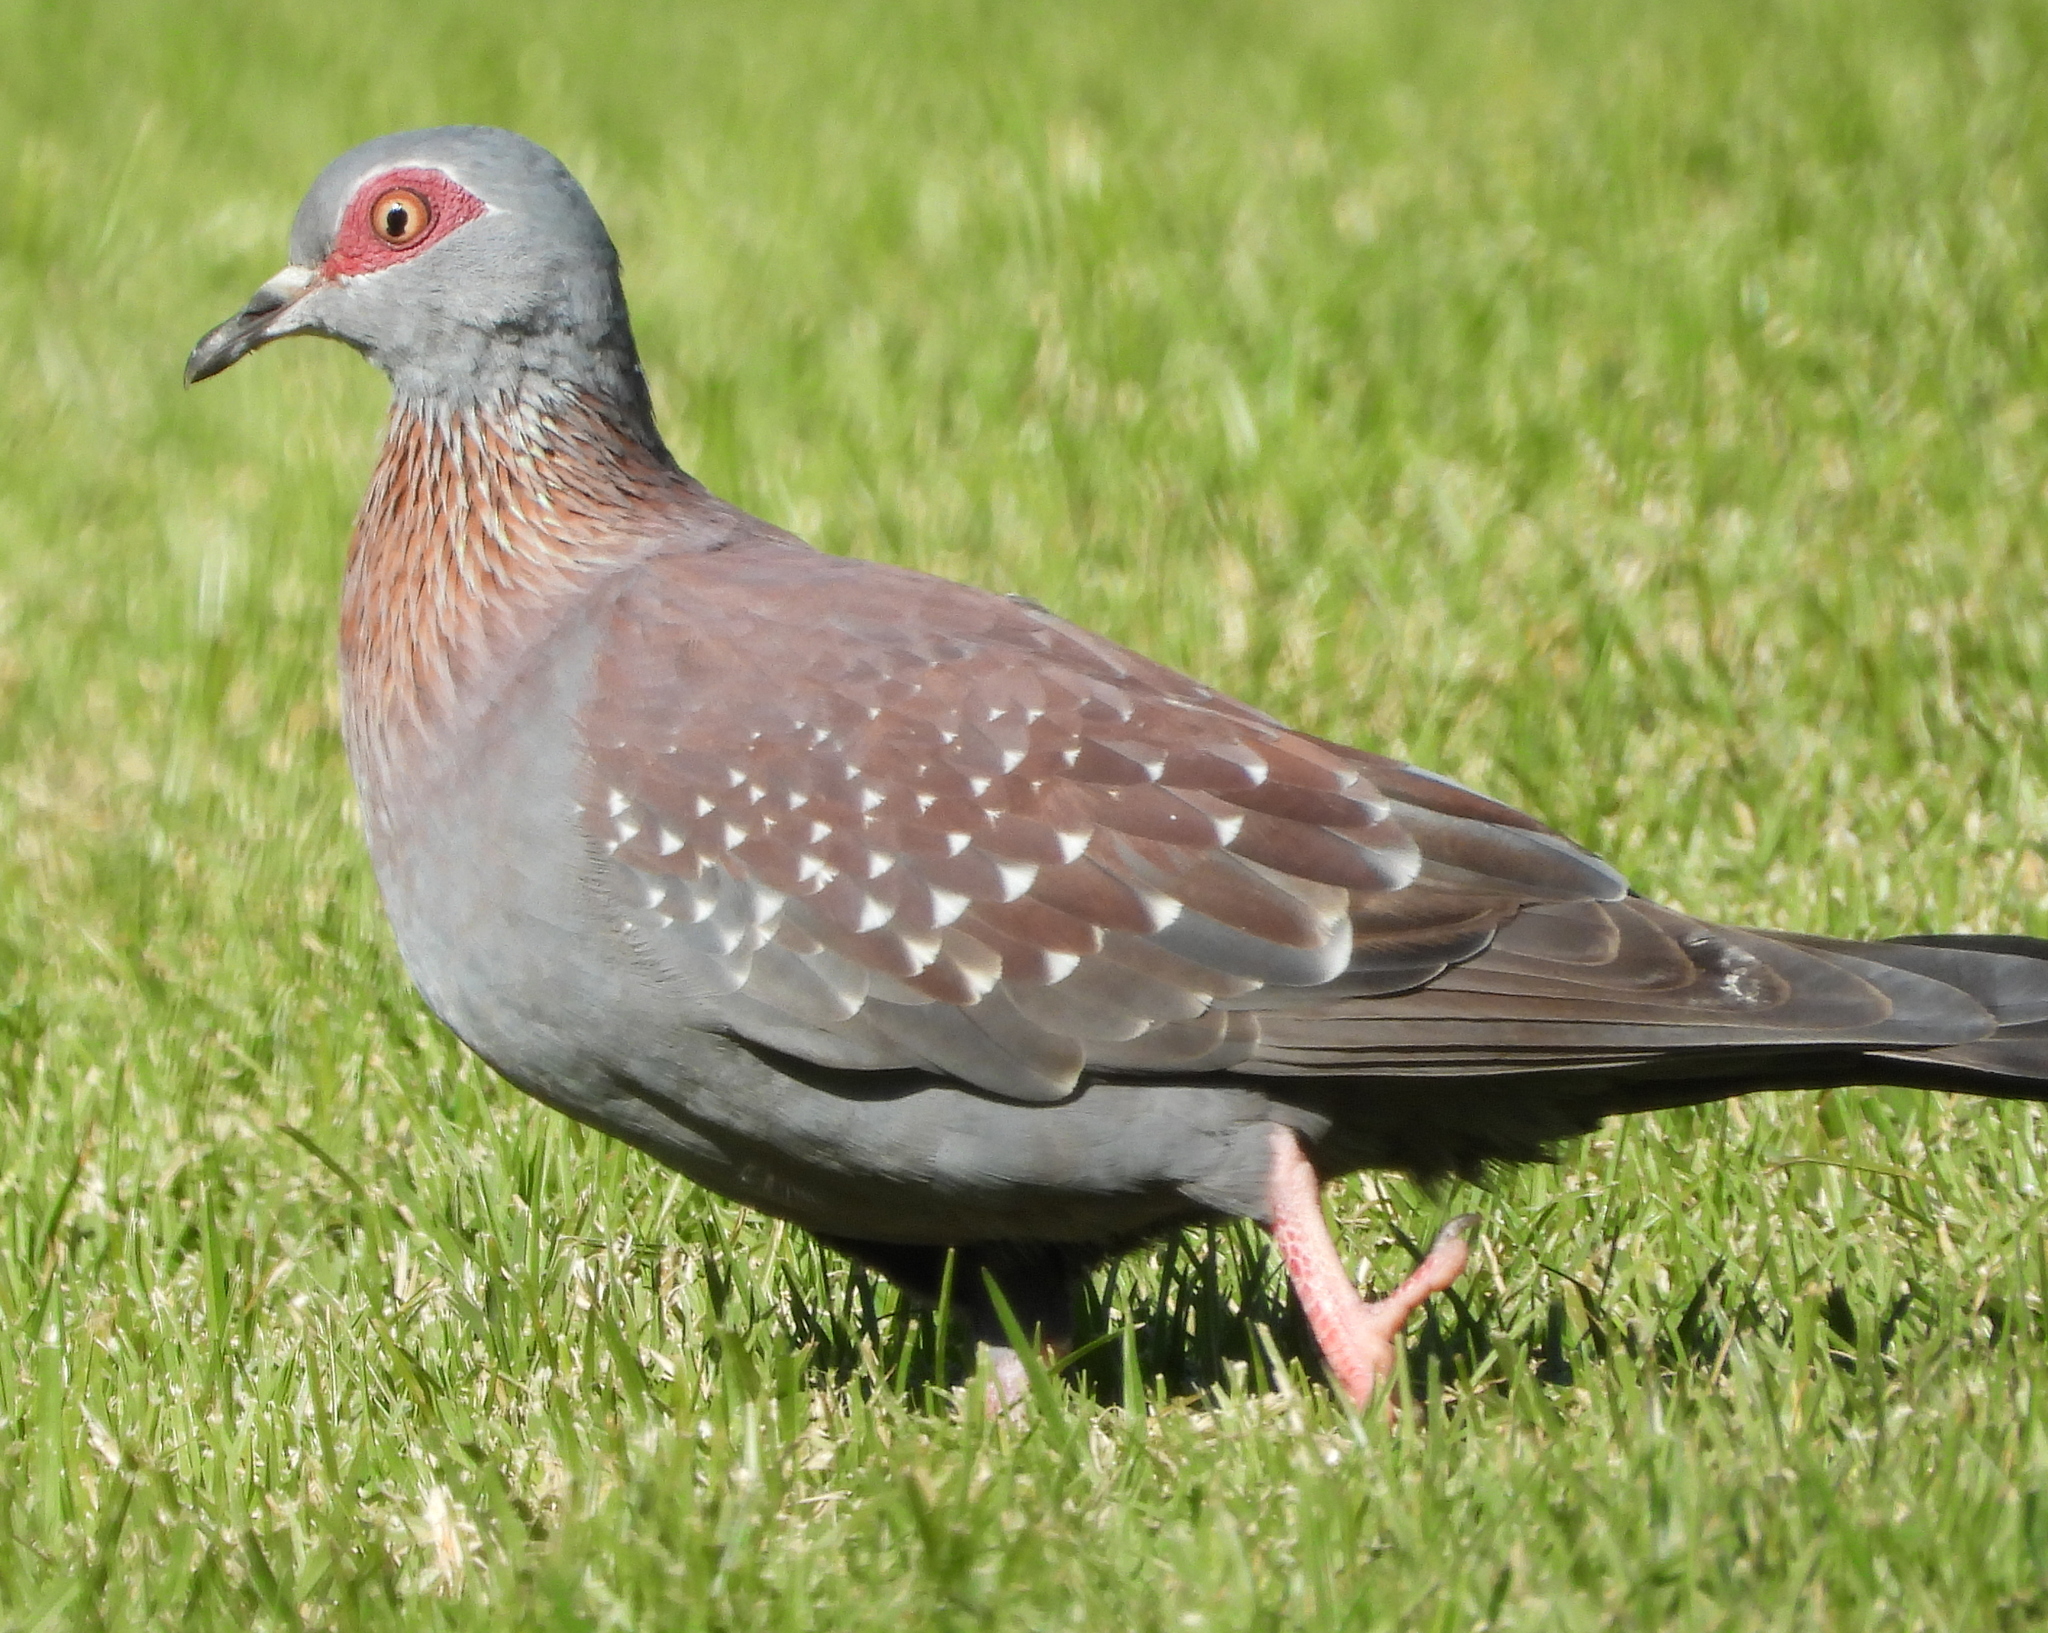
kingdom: Animalia
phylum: Chordata
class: Aves
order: Columbiformes
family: Columbidae
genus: Columba
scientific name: Columba guinea
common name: Speckled pigeon
